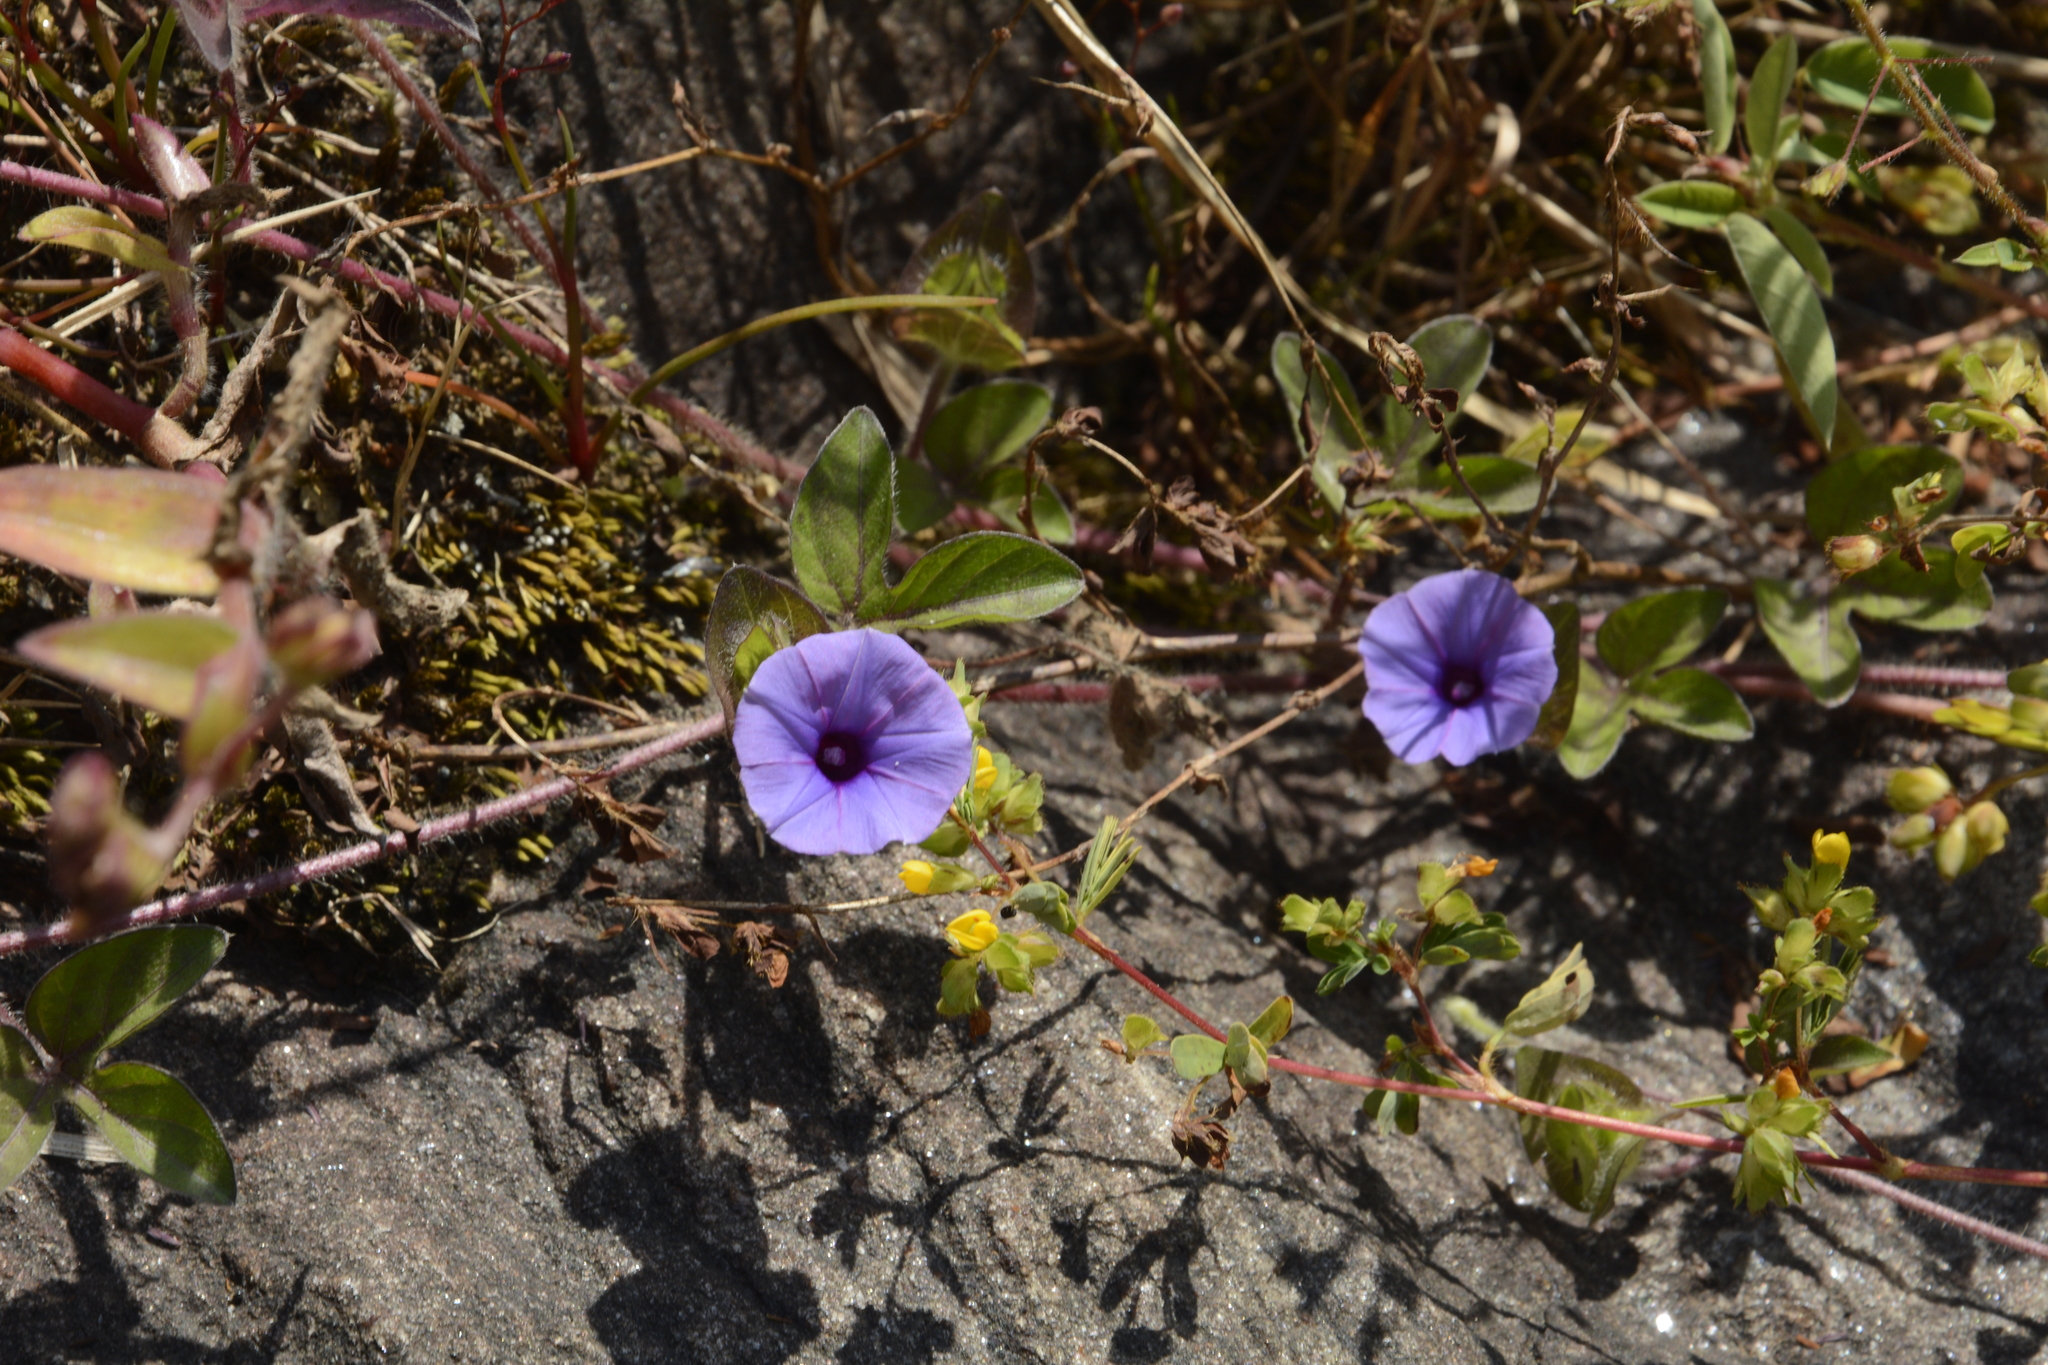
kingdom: Plantae
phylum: Tracheophyta
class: Magnoliopsida
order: Solanales
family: Convolvulaceae
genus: Ipomoea
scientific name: Ipomoea deccana
